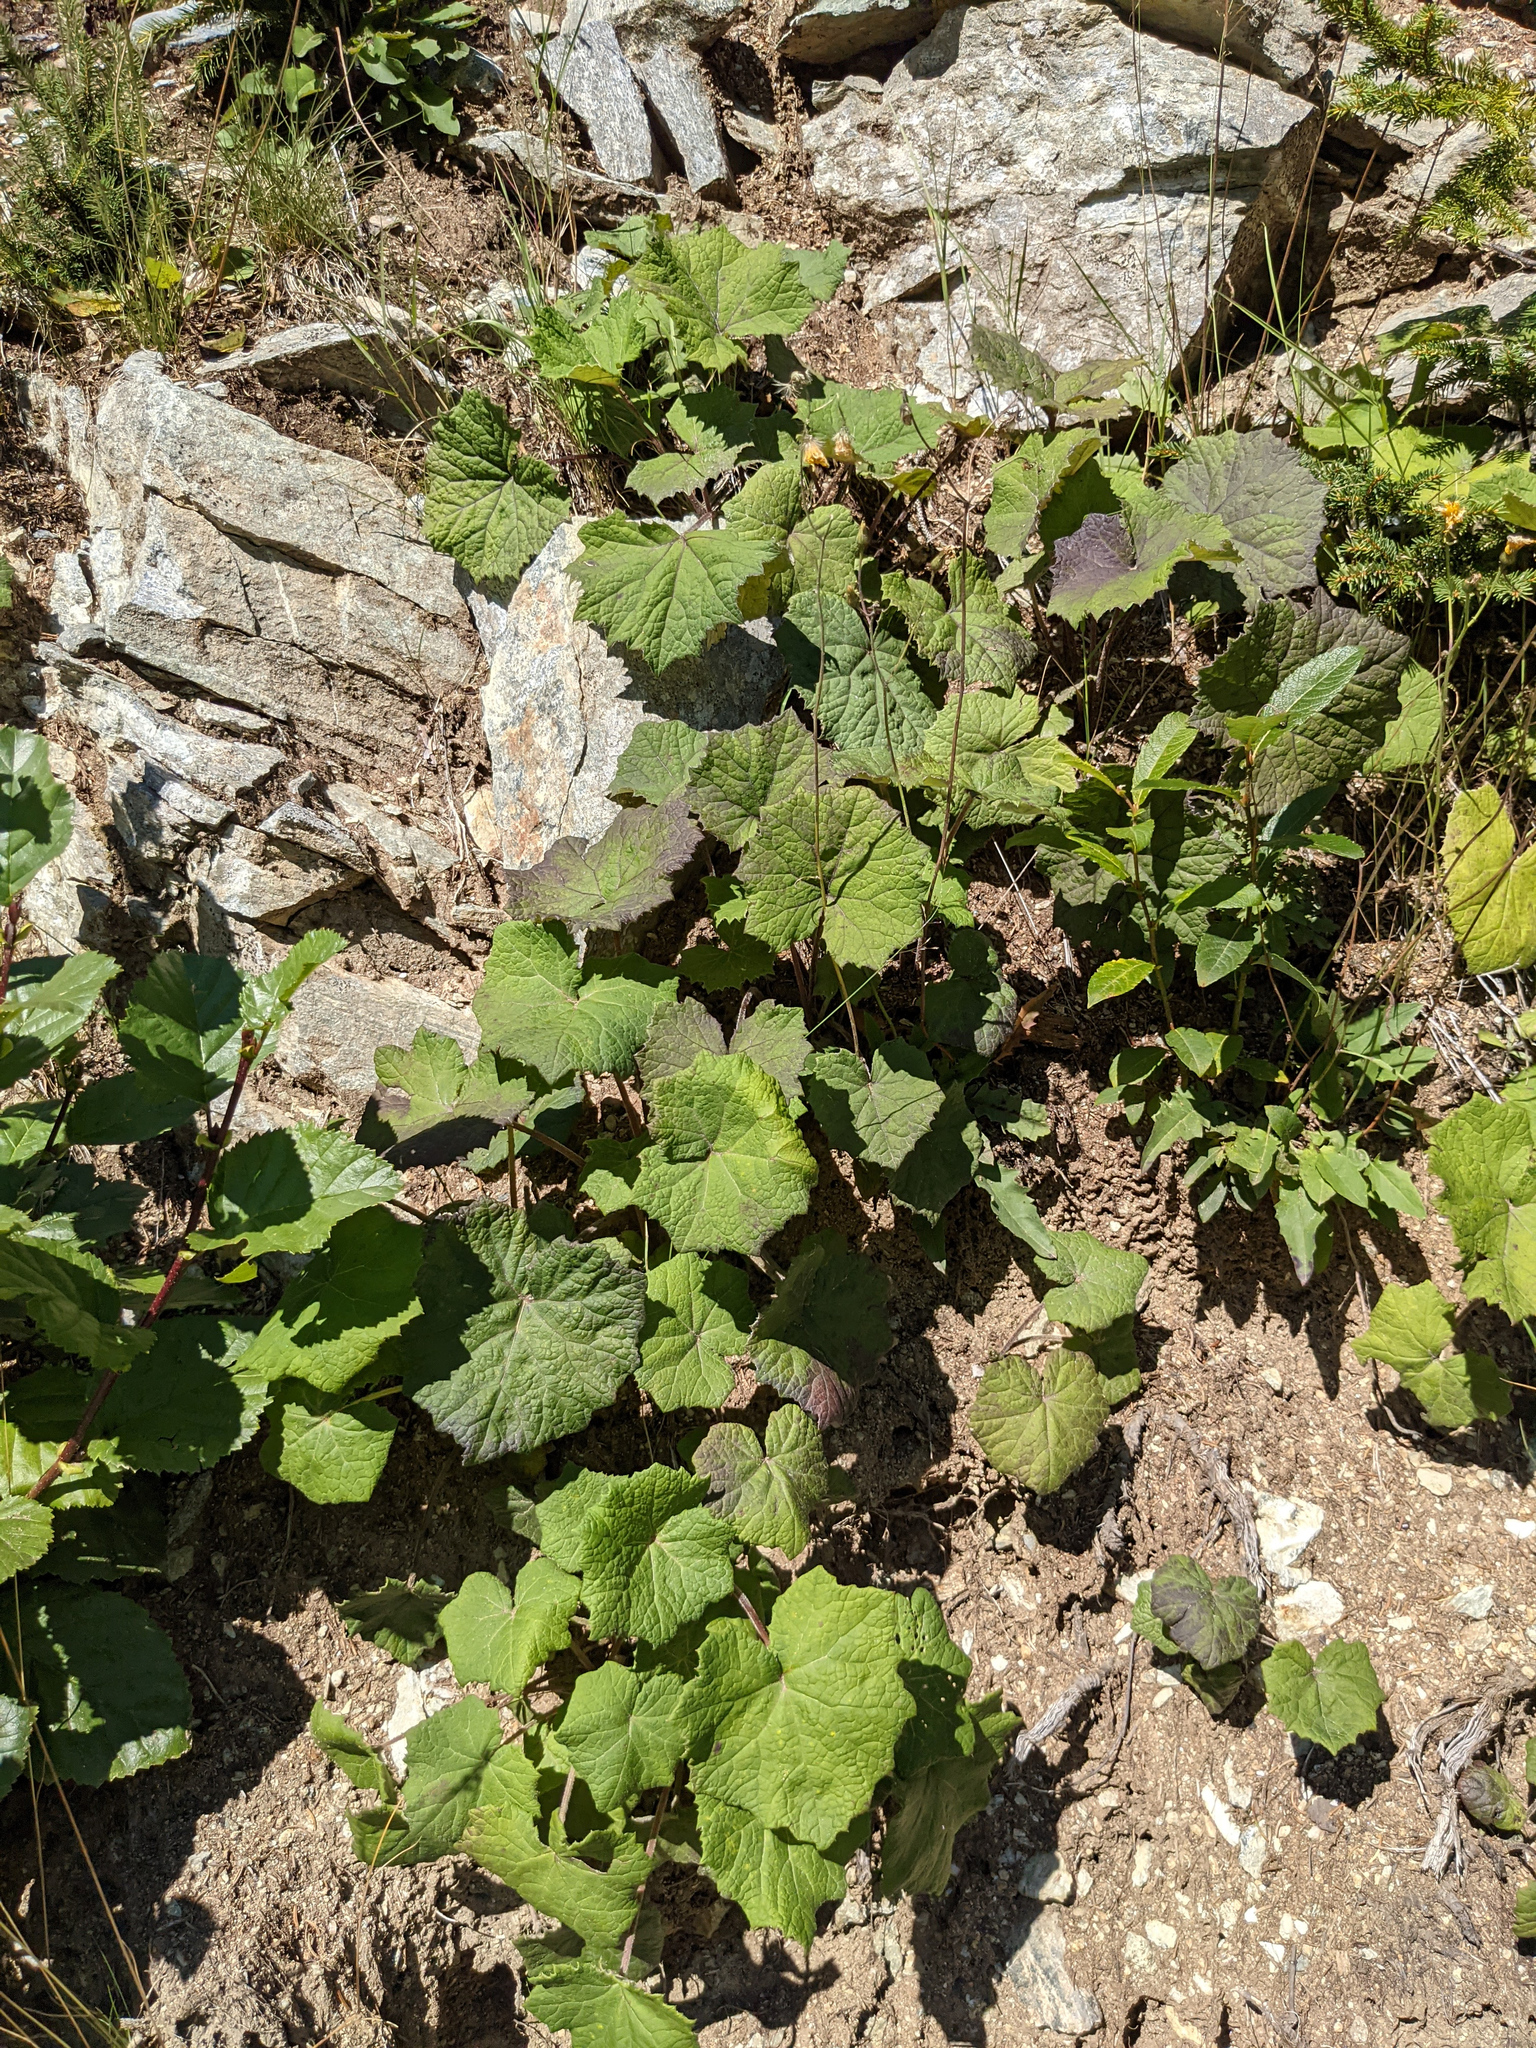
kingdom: Plantae
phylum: Tracheophyta
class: Magnoliopsida
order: Asterales
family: Asteraceae
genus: Tussilago
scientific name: Tussilago farfara
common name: Coltsfoot
